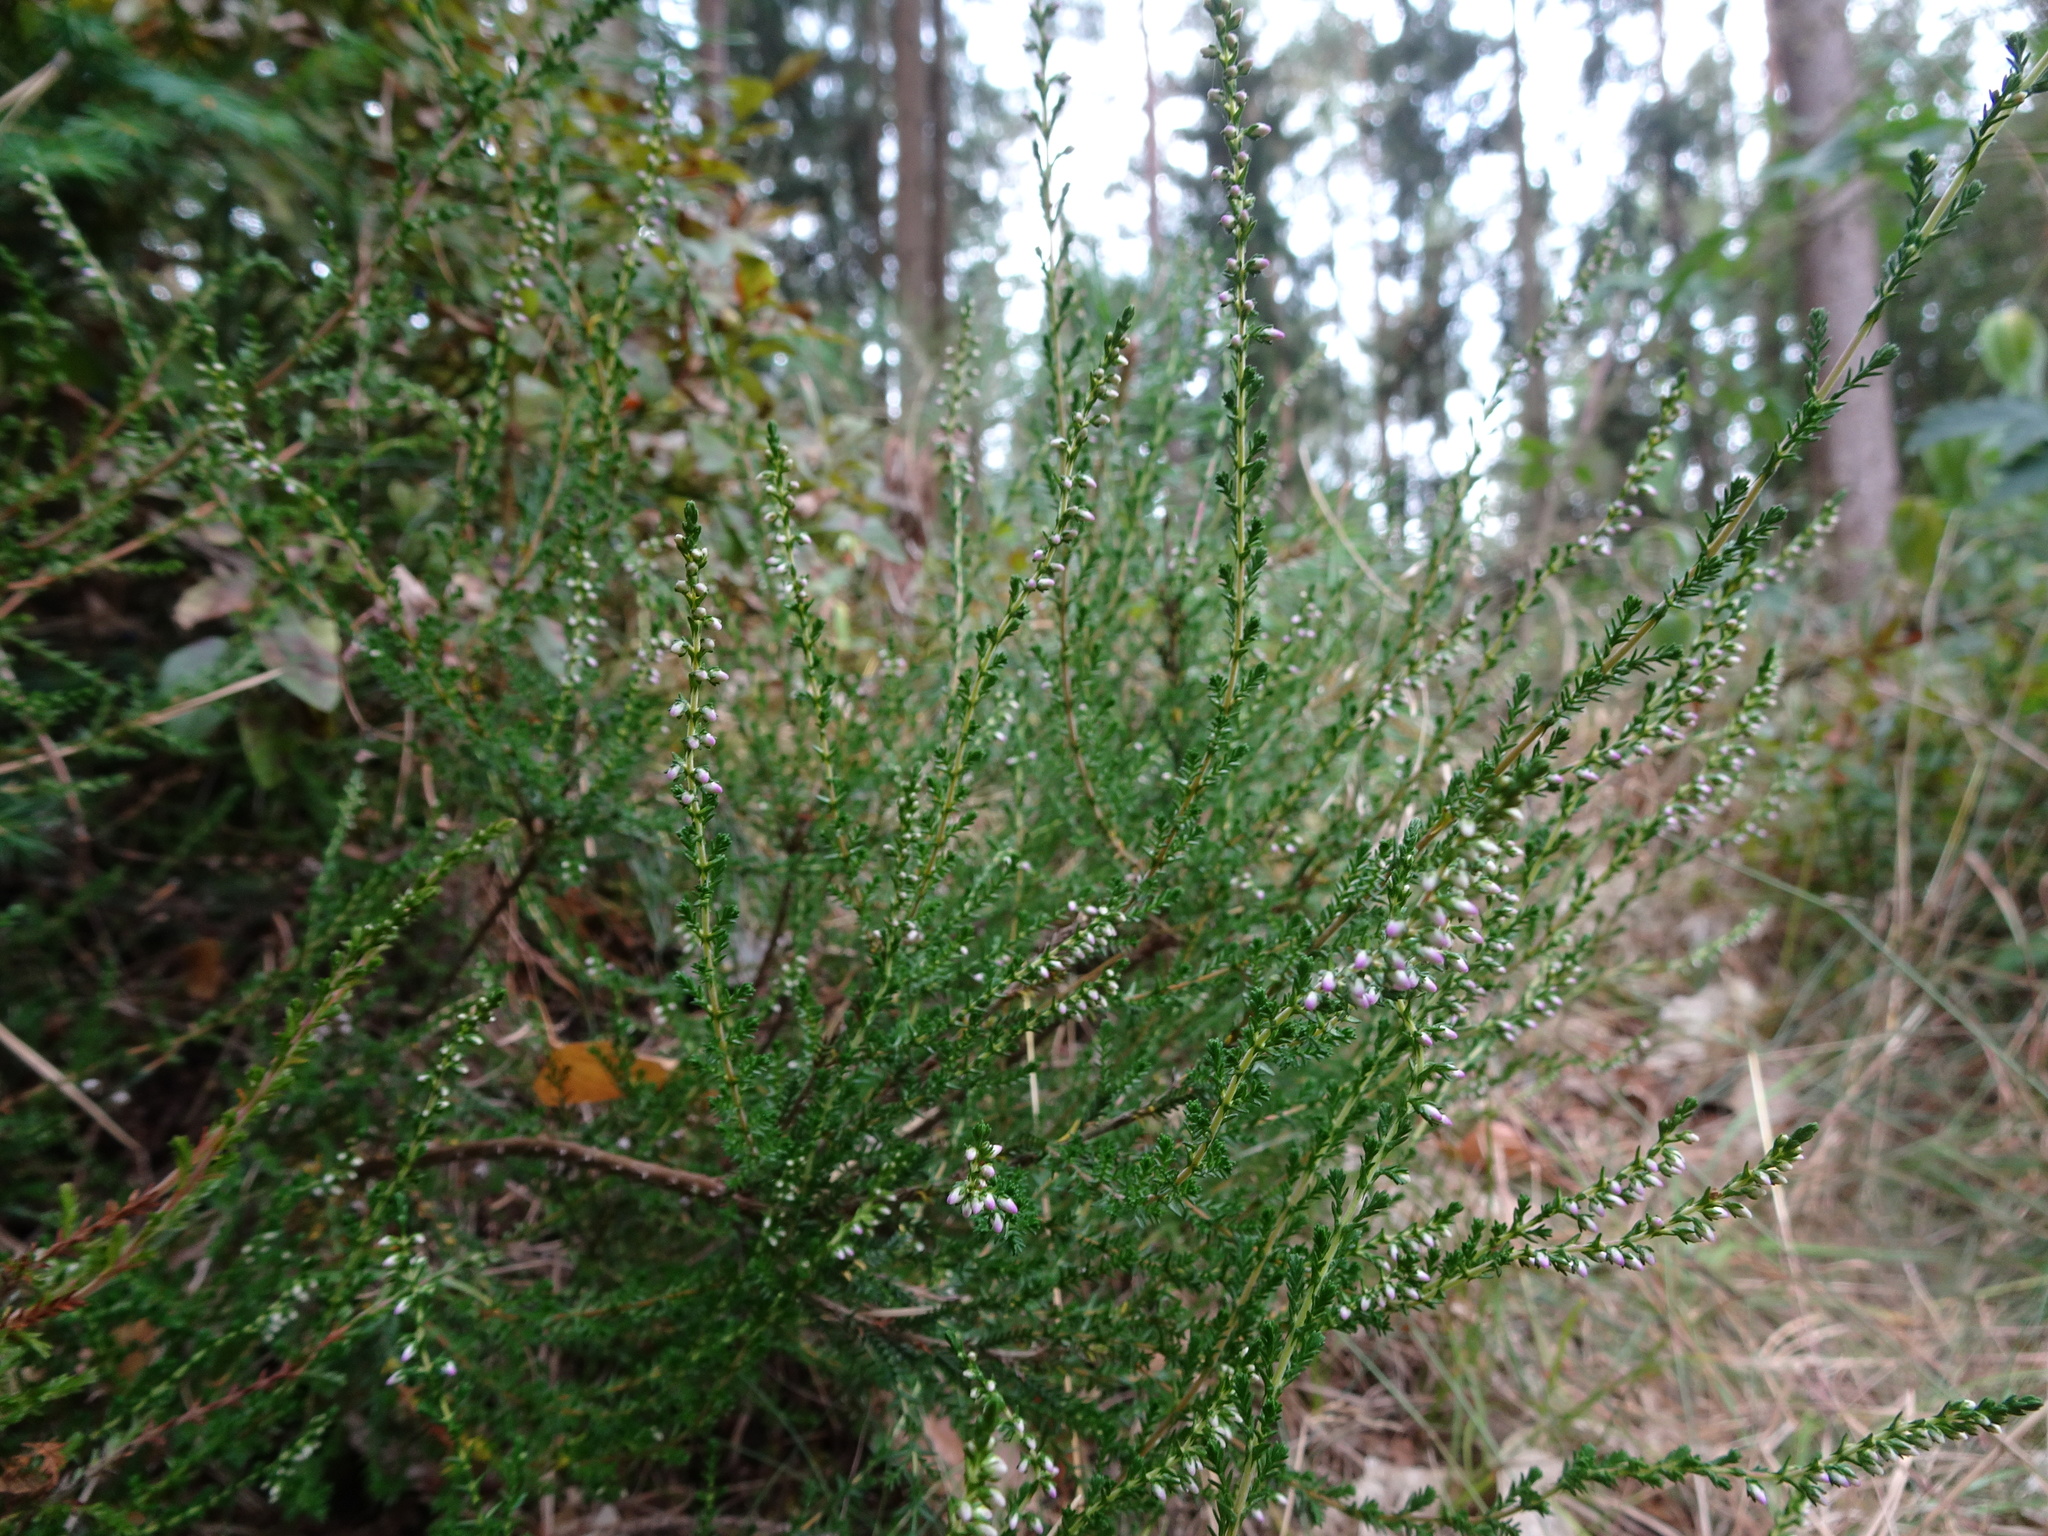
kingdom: Plantae
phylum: Tracheophyta
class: Magnoliopsida
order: Ericales
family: Ericaceae
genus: Calluna
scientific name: Calluna vulgaris
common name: Heather
